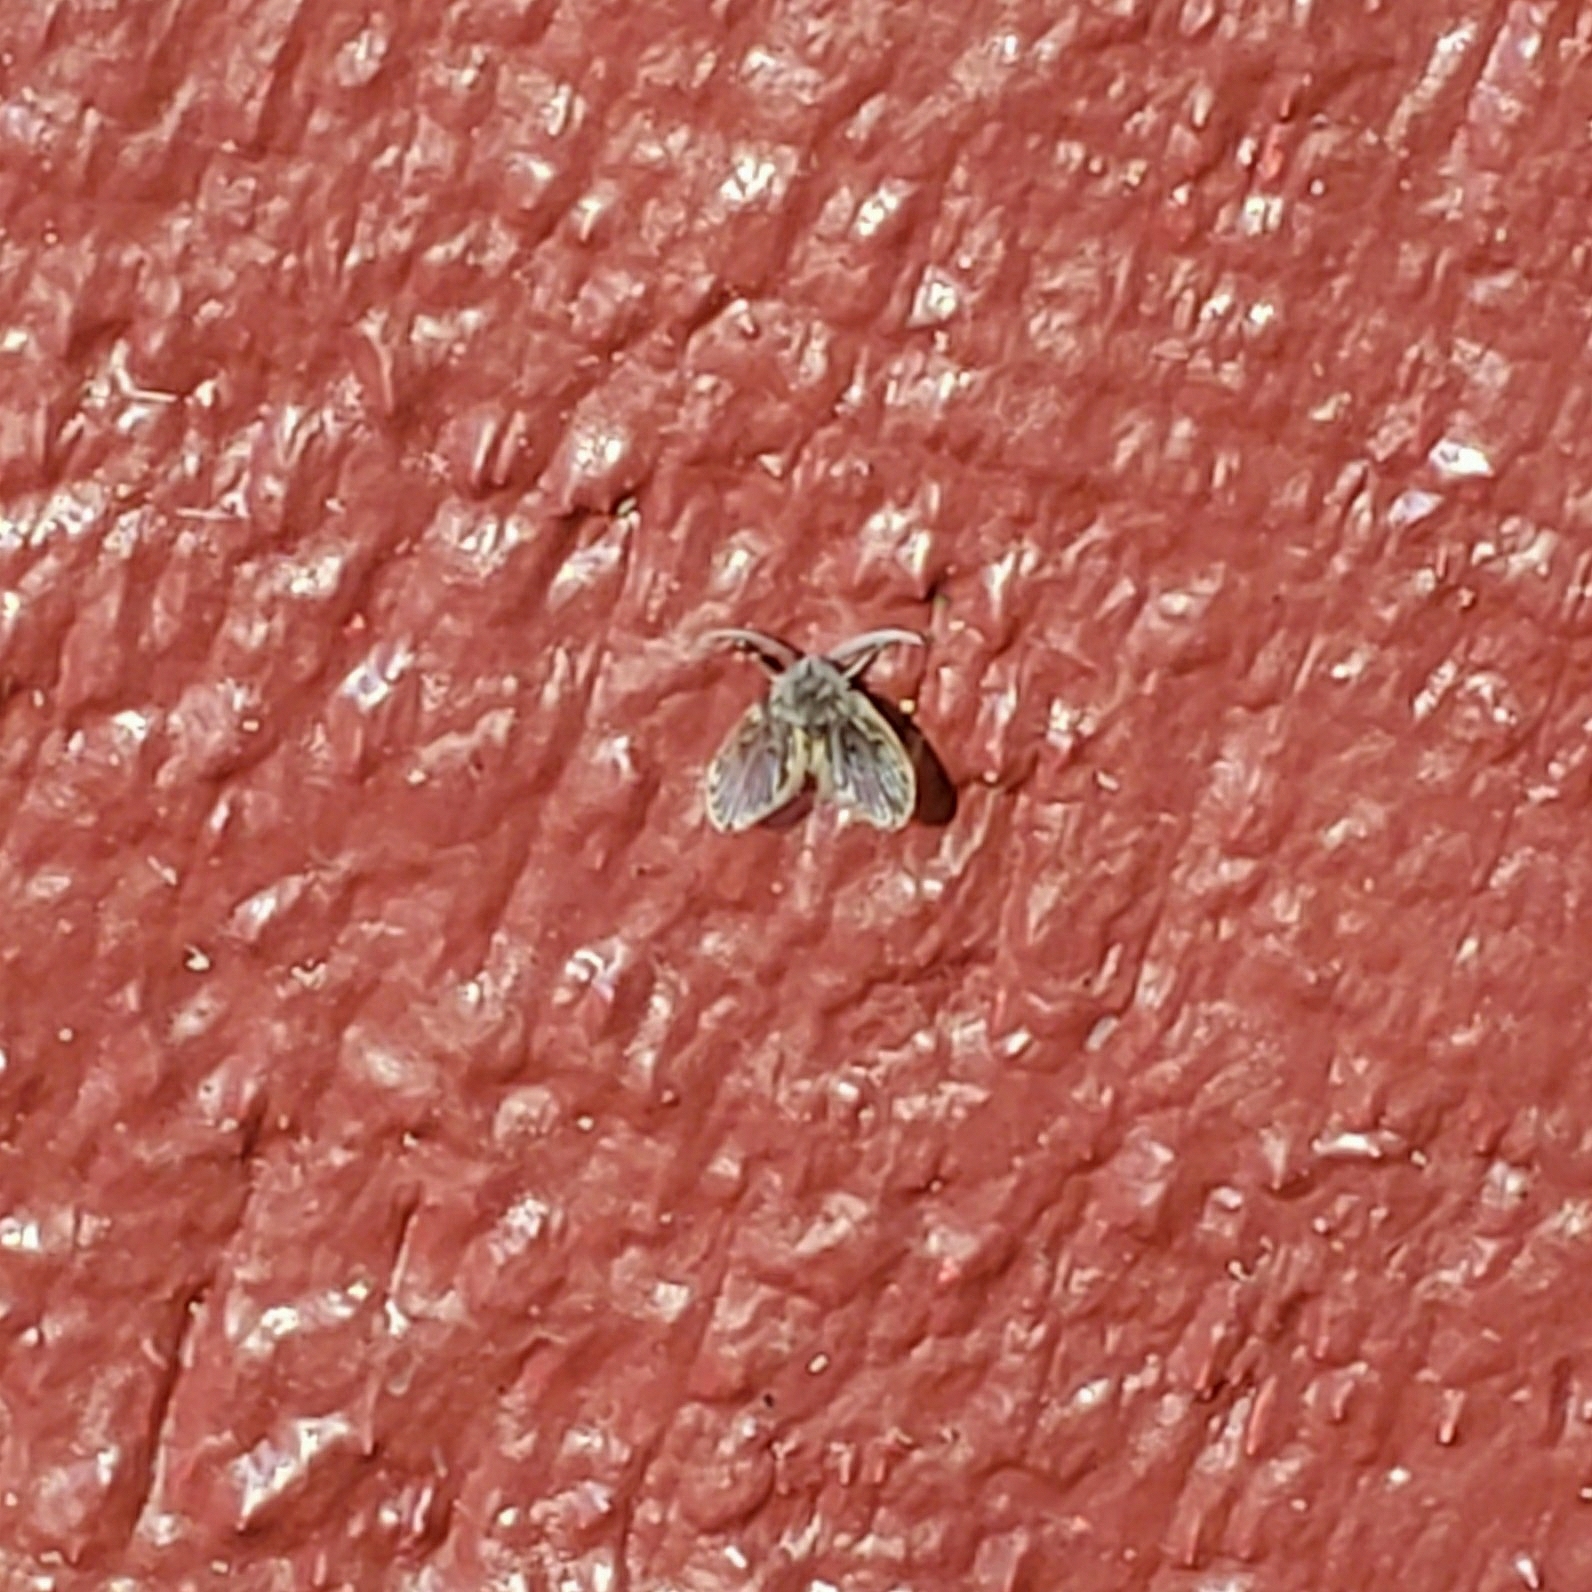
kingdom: Animalia
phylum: Arthropoda
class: Insecta
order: Diptera
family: Psychodidae
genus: Clogmia
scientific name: Clogmia albipunctatus
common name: White-spotted moth fly
